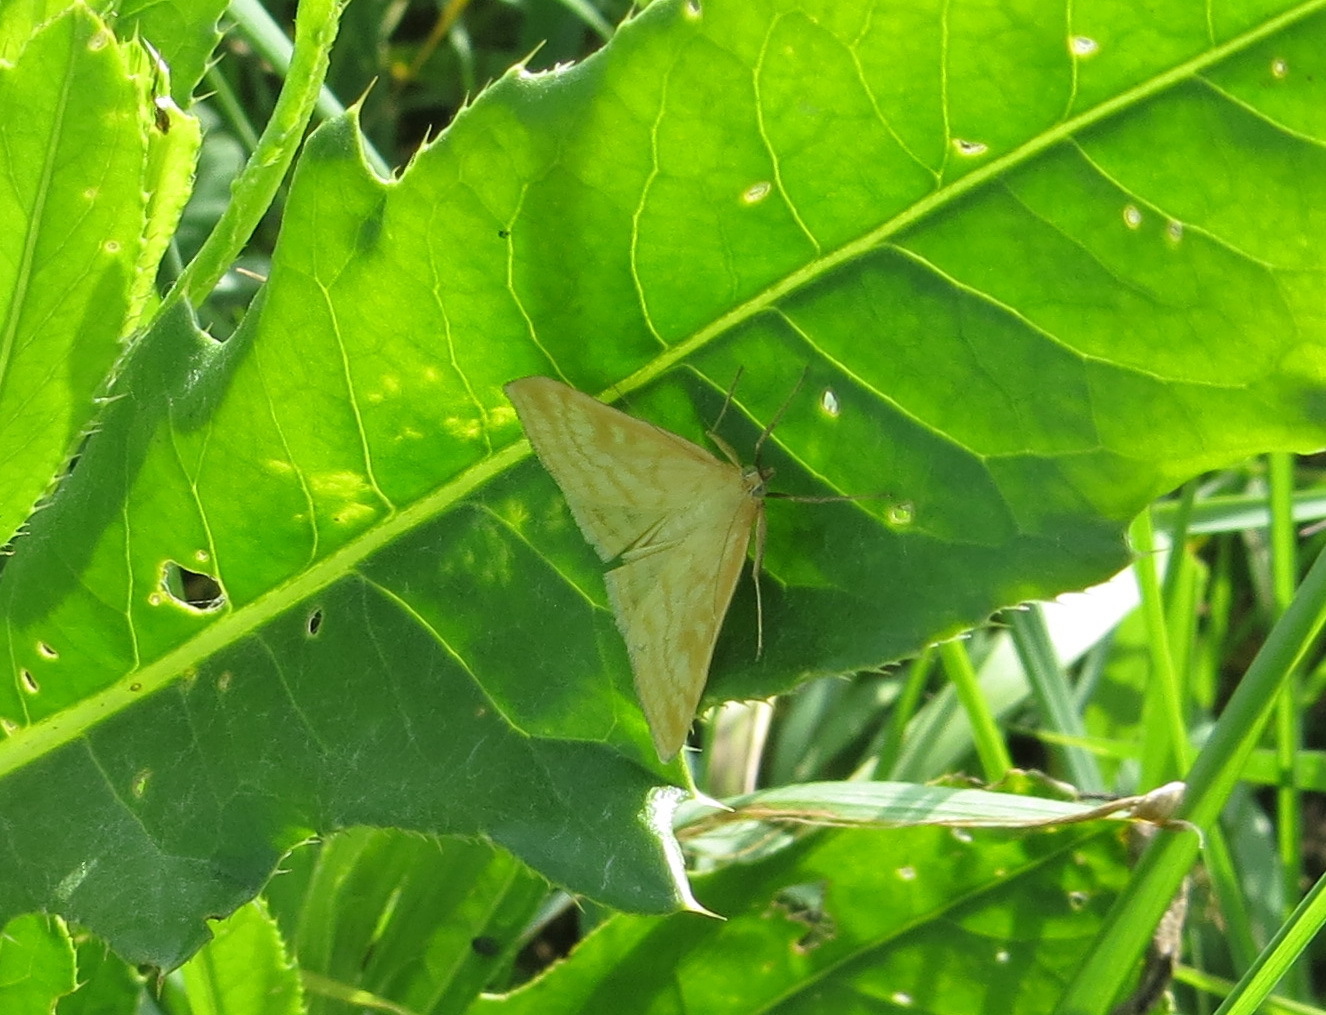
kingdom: Animalia
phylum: Arthropoda
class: Insecta
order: Lepidoptera
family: Crambidae
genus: Sitochroa
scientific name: Sitochroa verticalis
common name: Lesser pearl
